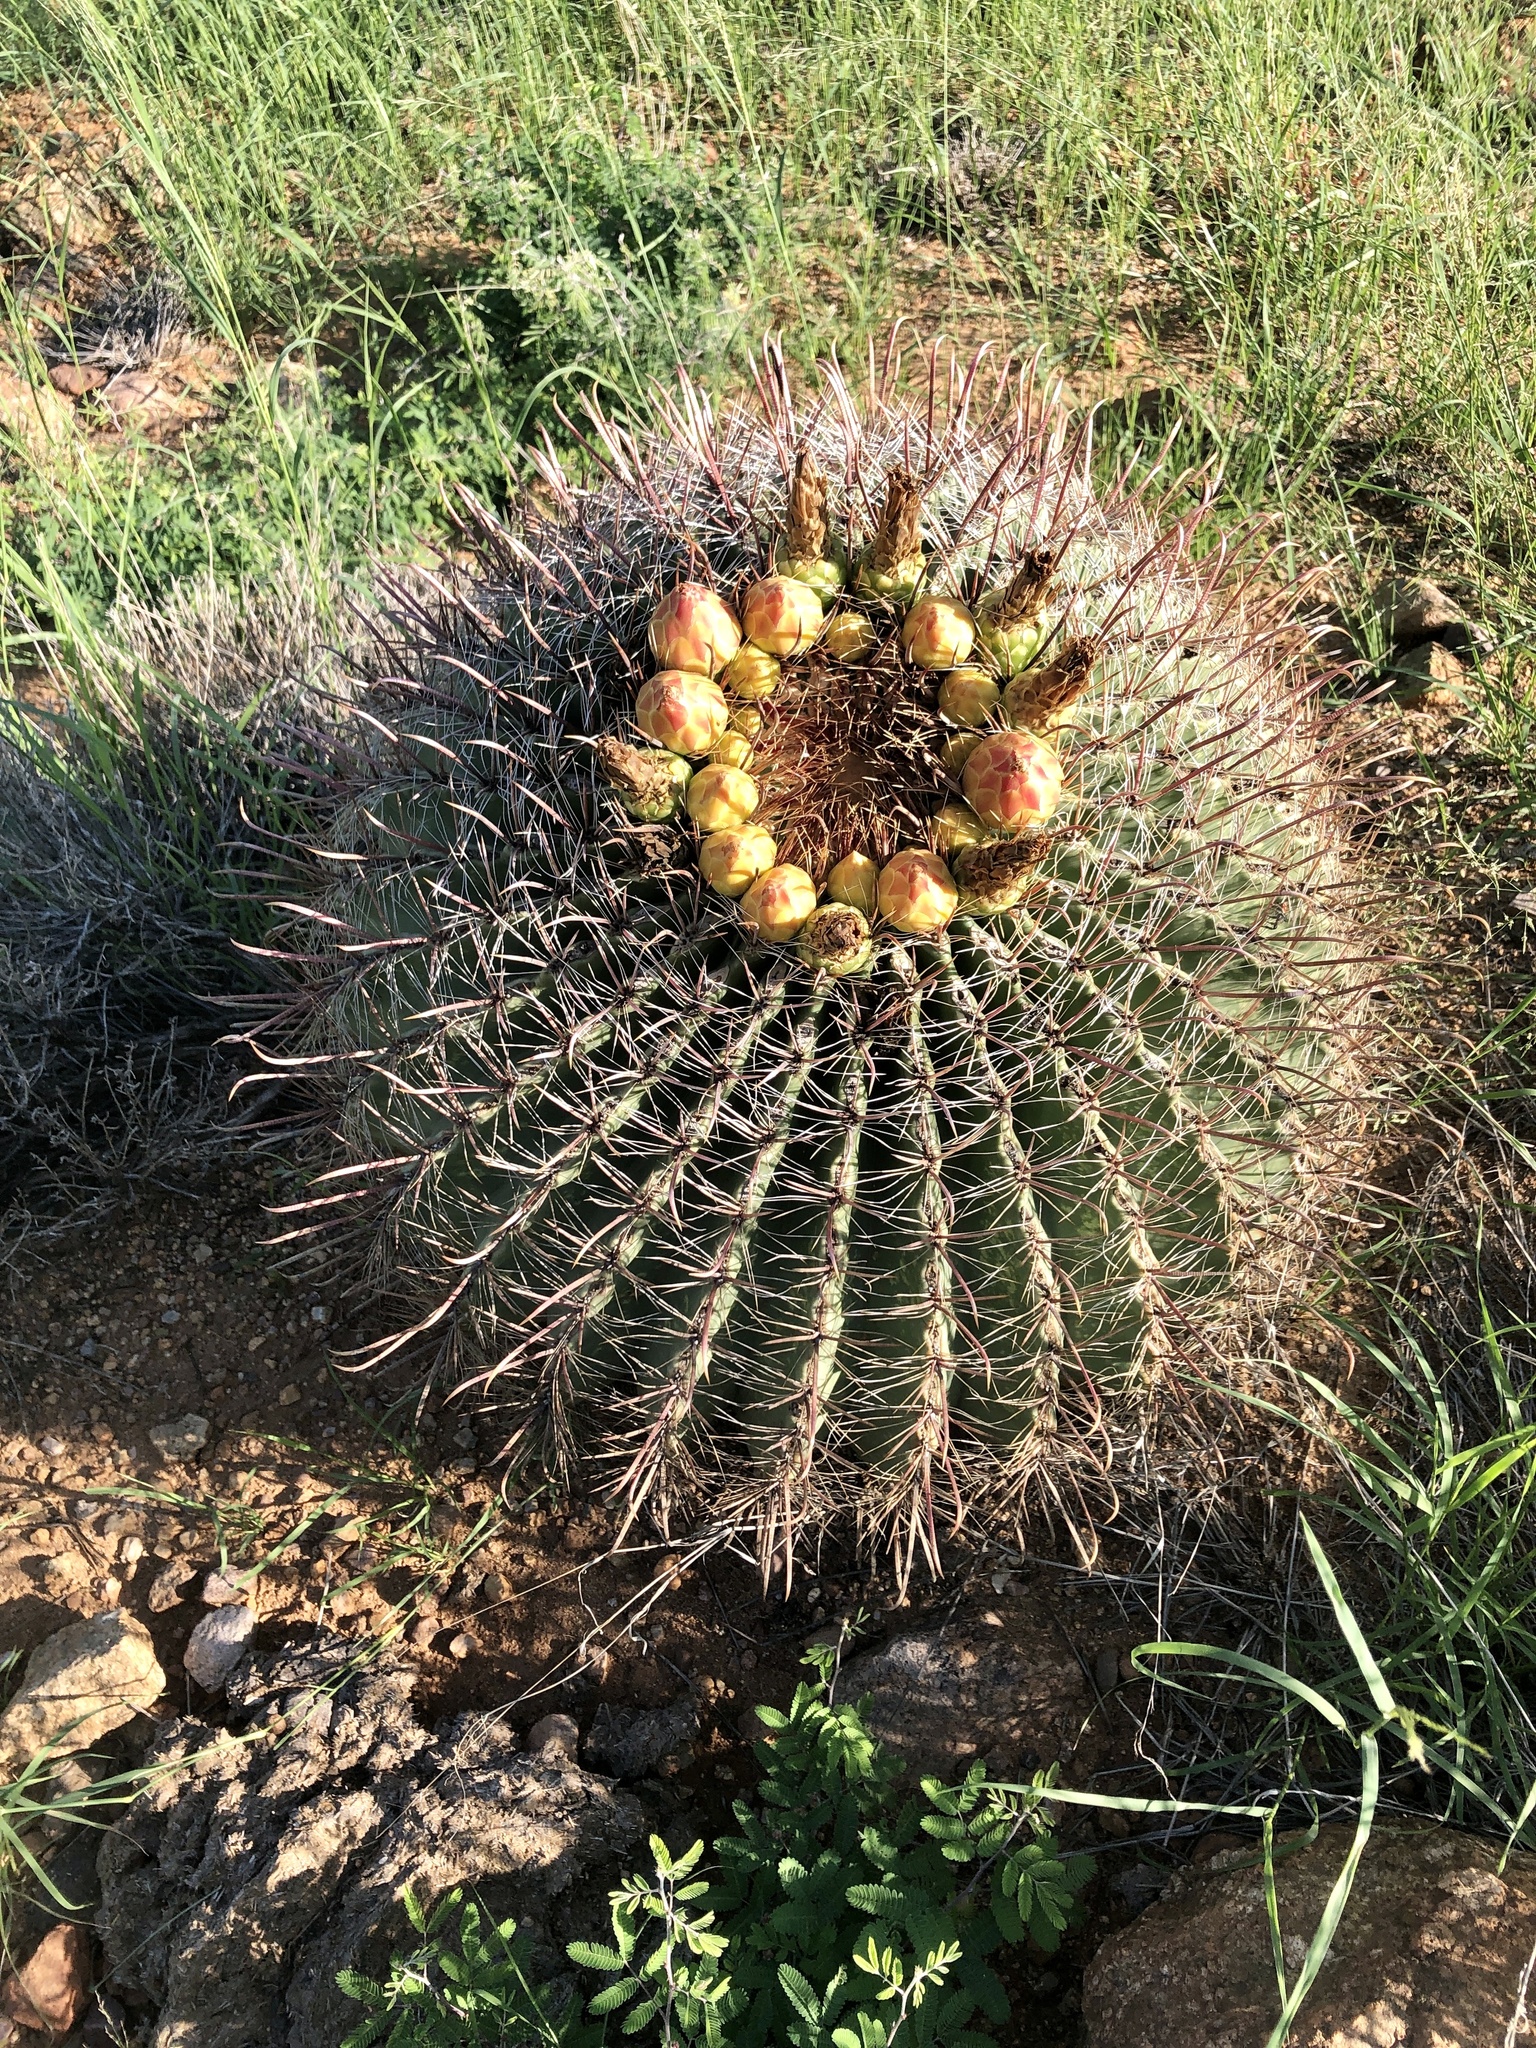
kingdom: Plantae
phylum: Tracheophyta
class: Magnoliopsida
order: Caryophyllales
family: Cactaceae
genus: Ferocactus
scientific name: Ferocactus wislizeni
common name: Candy barrel cactus
